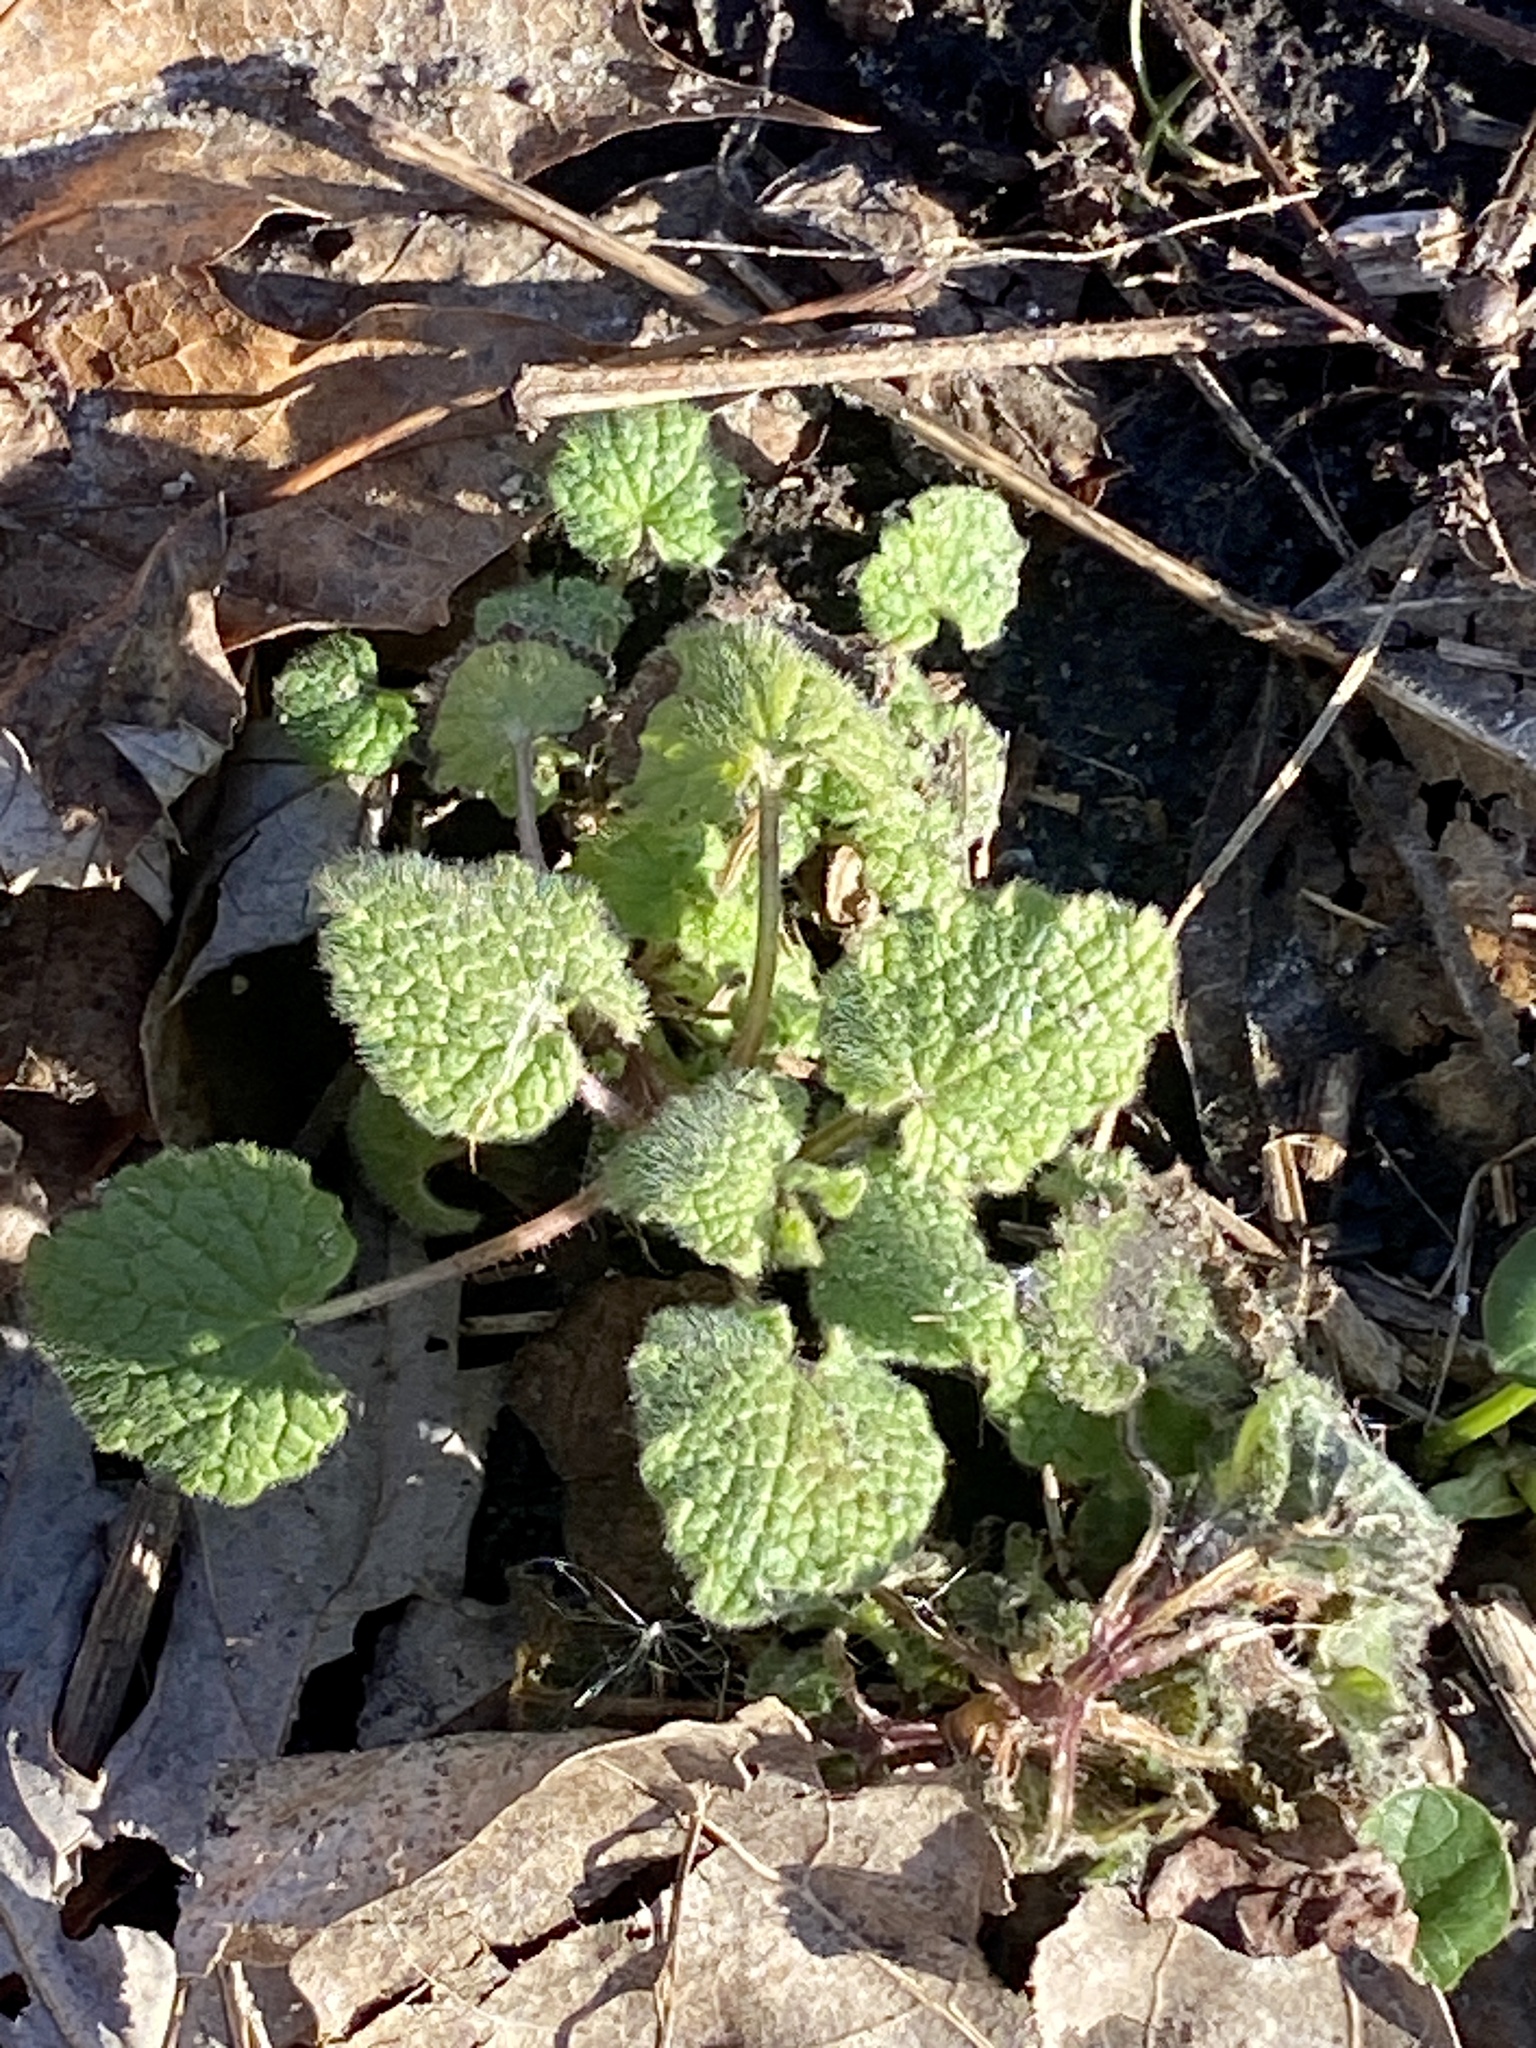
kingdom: Plantae
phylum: Tracheophyta
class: Magnoliopsida
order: Lamiales
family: Lamiaceae
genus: Lamium
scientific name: Lamium purpureum
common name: Red dead-nettle
